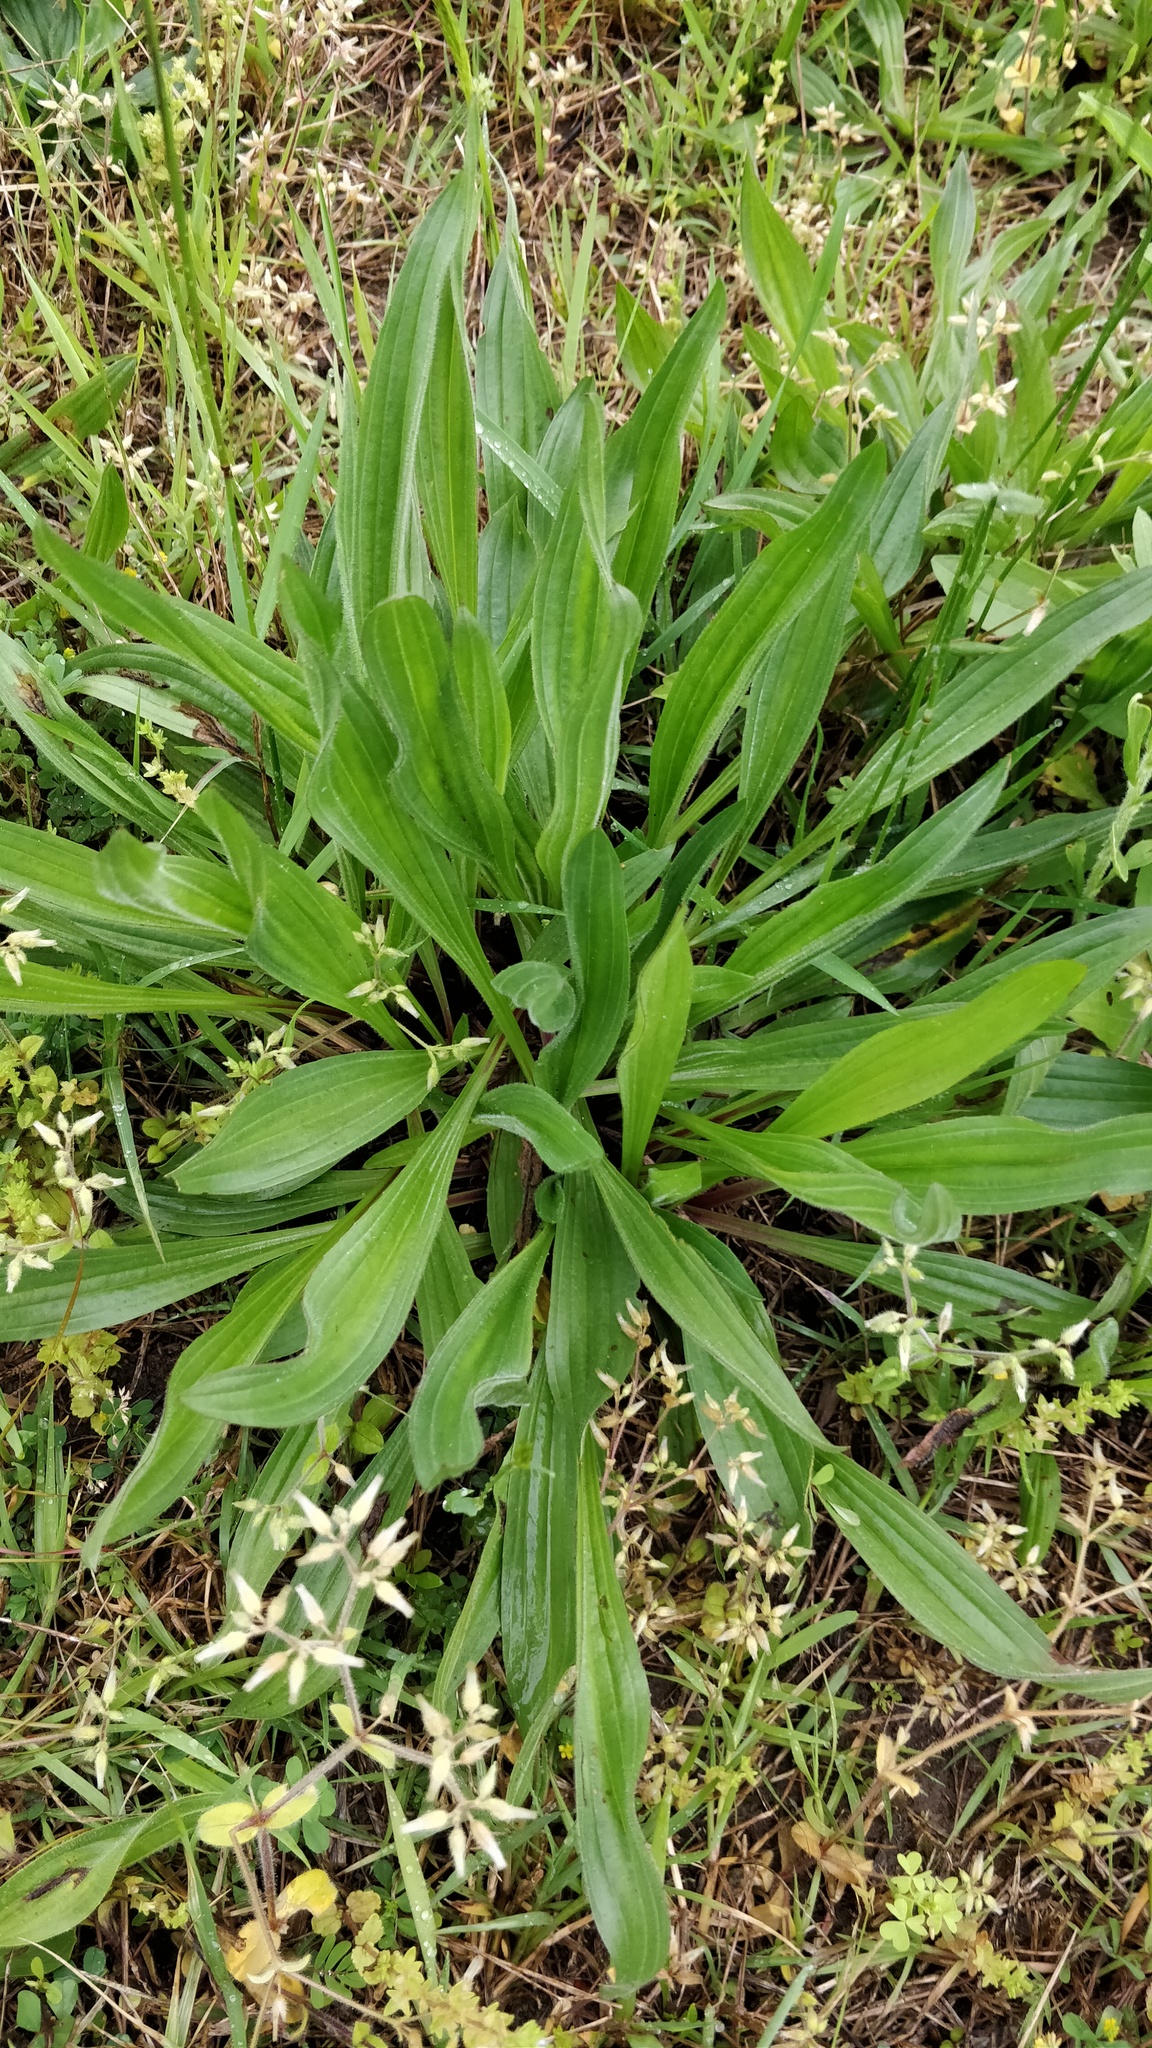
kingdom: Plantae
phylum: Tracheophyta
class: Magnoliopsida
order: Lamiales
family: Plantaginaceae
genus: Plantago
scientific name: Plantago lanceolata
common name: Ribwort plantain
